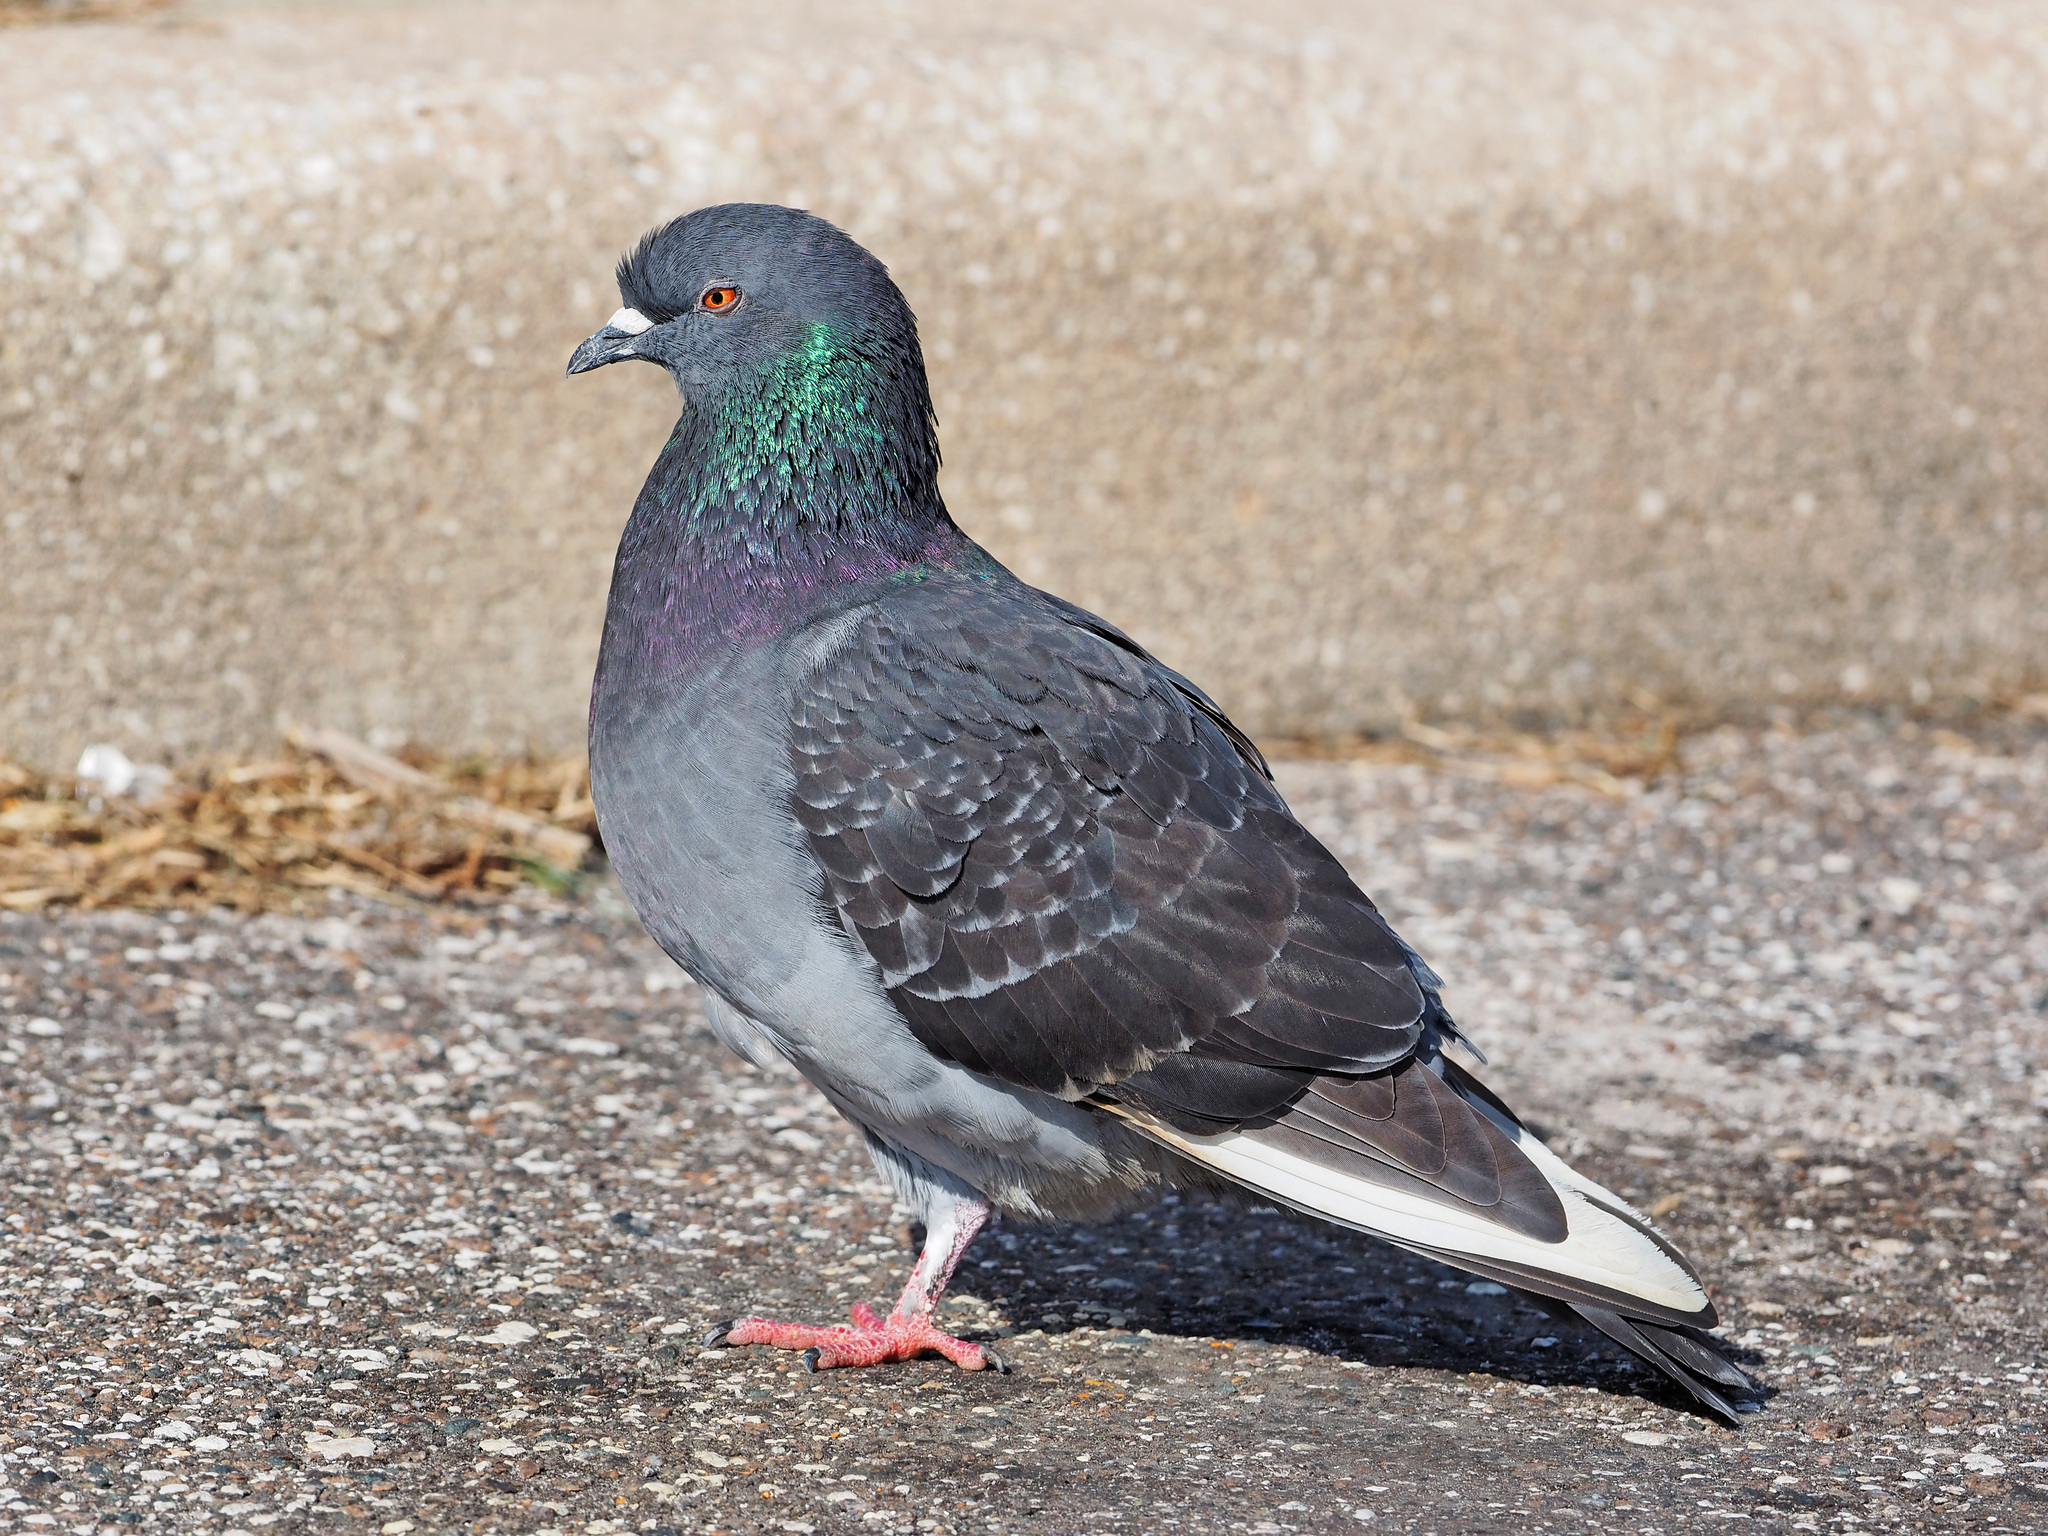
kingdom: Animalia
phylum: Chordata
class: Aves
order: Columbiformes
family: Columbidae
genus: Columba
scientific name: Columba livia
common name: Rock pigeon
